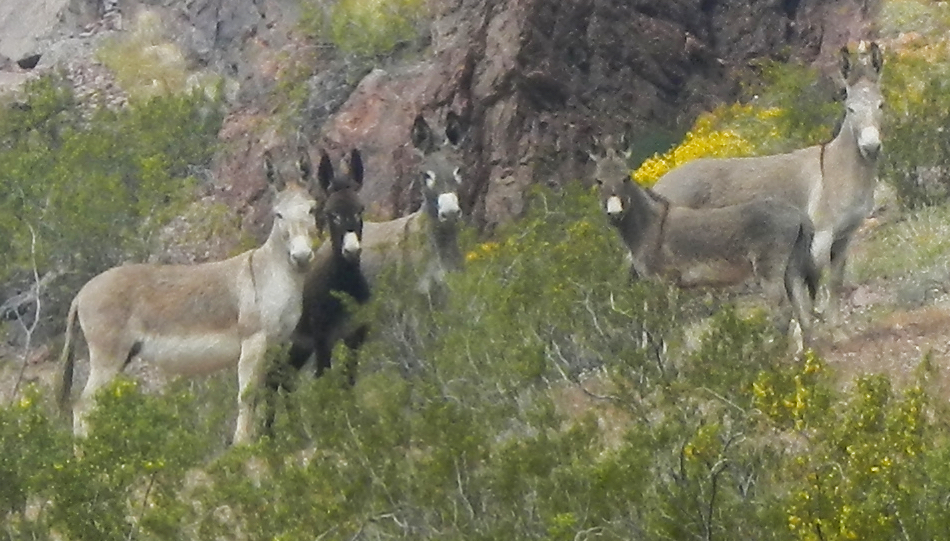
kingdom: Animalia
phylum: Chordata
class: Mammalia
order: Perissodactyla
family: Equidae
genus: Equus
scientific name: Equus asinus
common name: Ass
